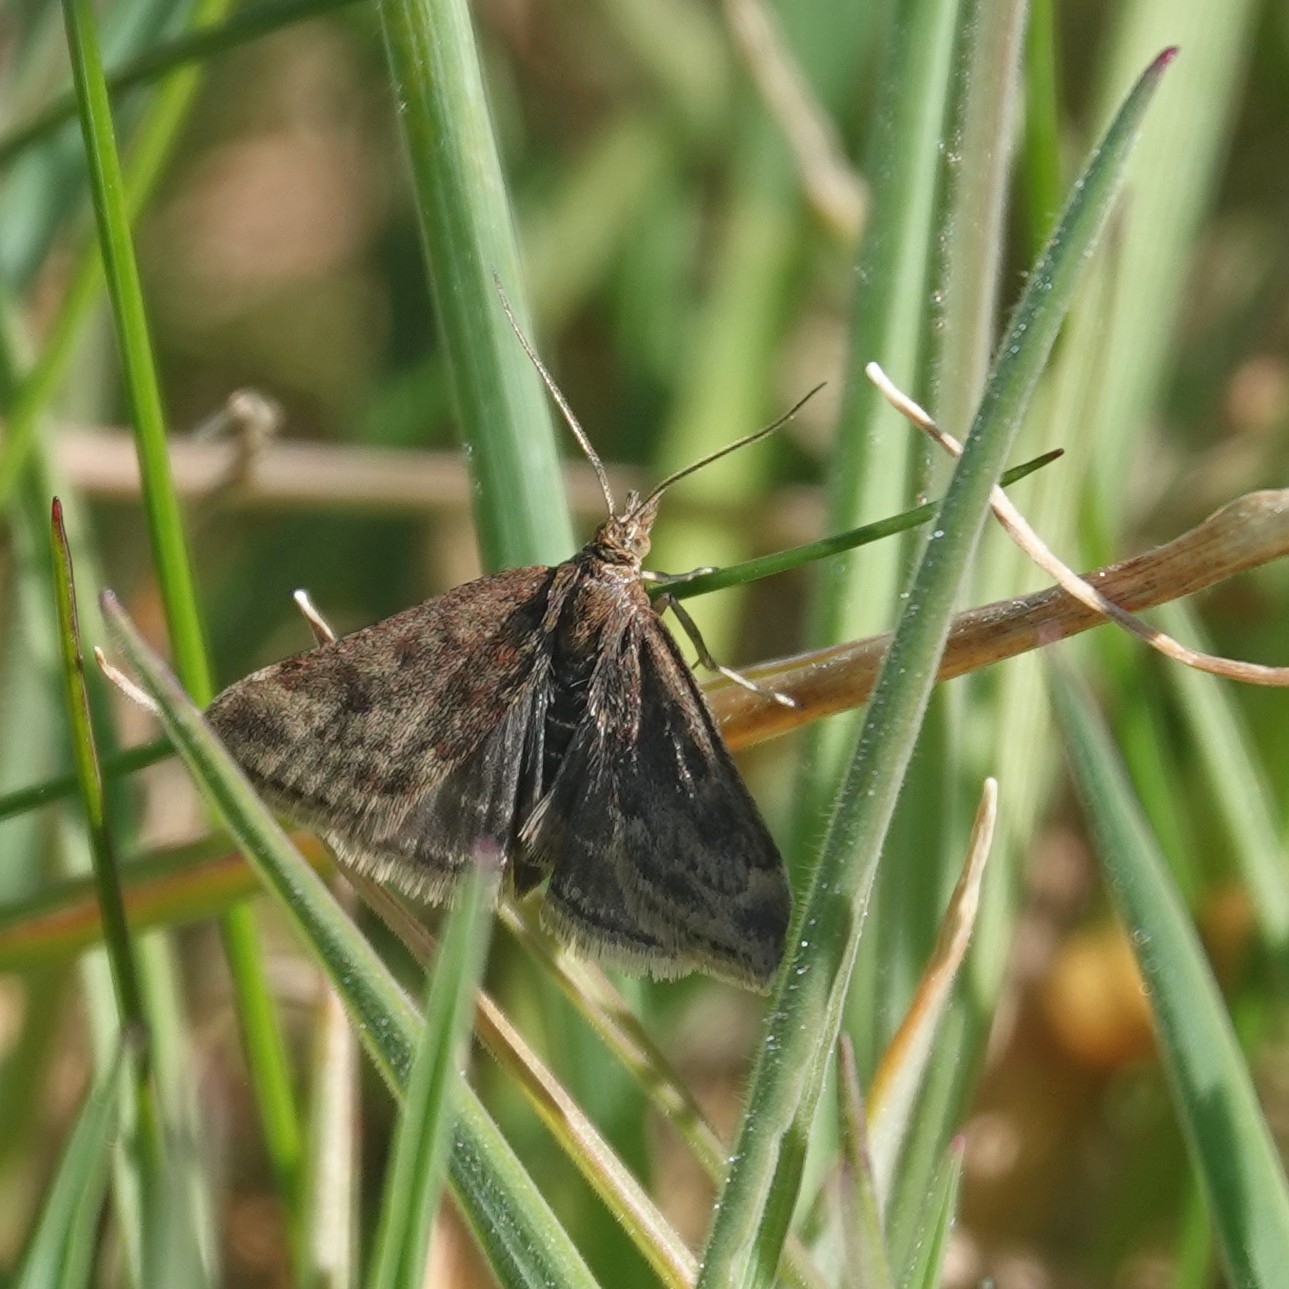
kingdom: Animalia
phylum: Arthropoda
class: Insecta
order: Lepidoptera
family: Crambidae
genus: Pyrausta
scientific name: Pyrausta despicata
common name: Straw-barred pearl
